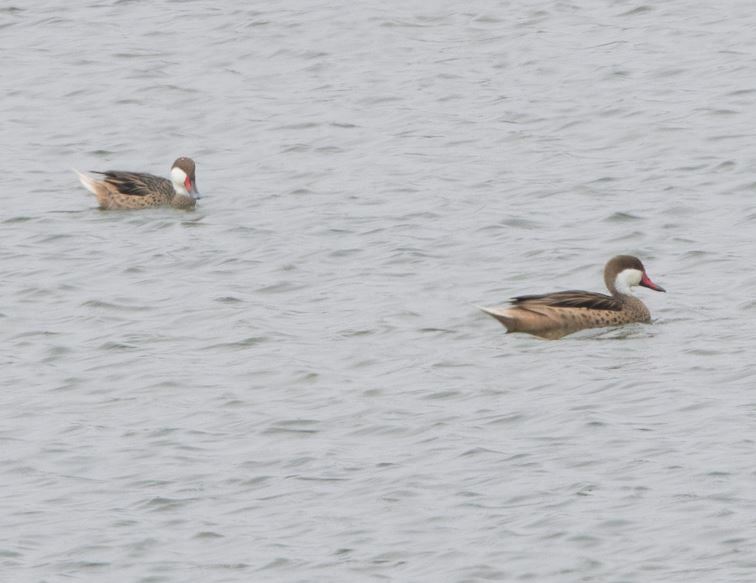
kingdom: Animalia
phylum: Chordata
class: Aves
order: Anseriformes
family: Anatidae
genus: Anas
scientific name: Anas bahamensis
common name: White-cheeked pintail
